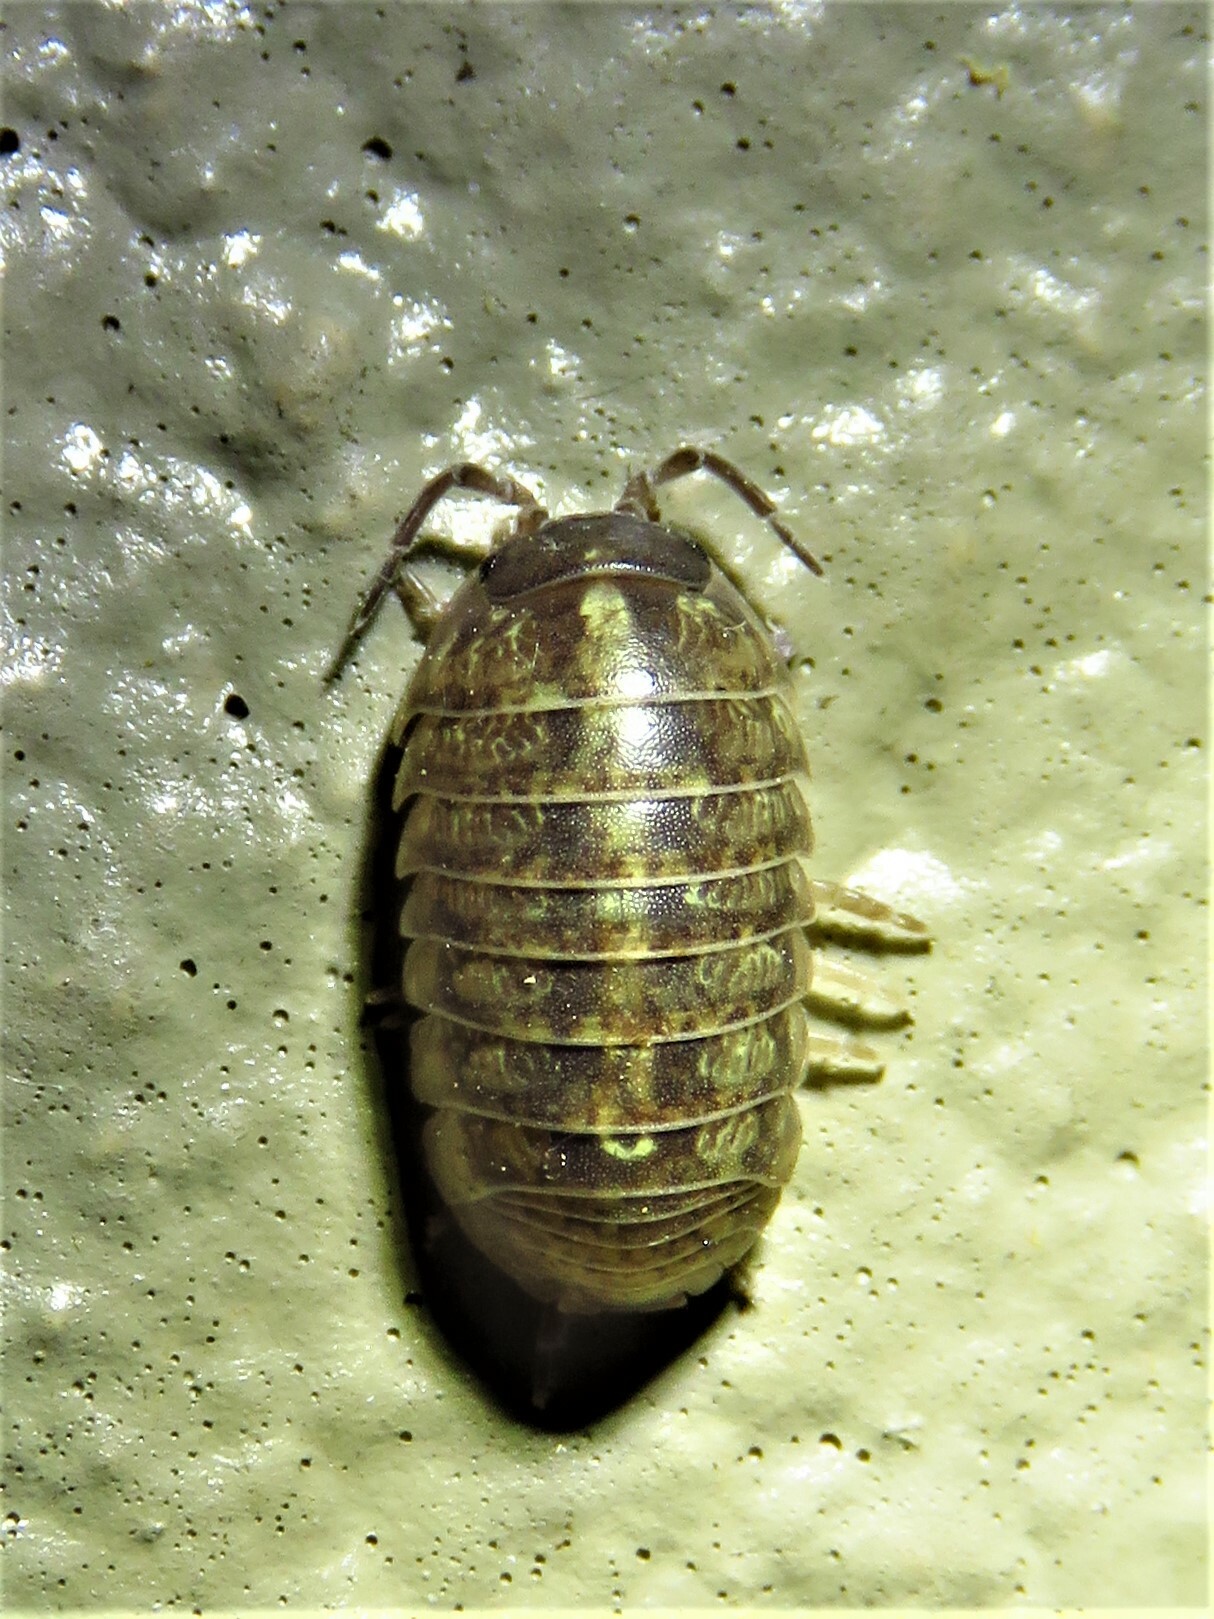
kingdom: Animalia
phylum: Arthropoda
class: Malacostraca
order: Isopoda
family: Armadillidiidae
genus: Armadillidium
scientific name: Armadillidium vulgare
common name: Common pill woodlouse
